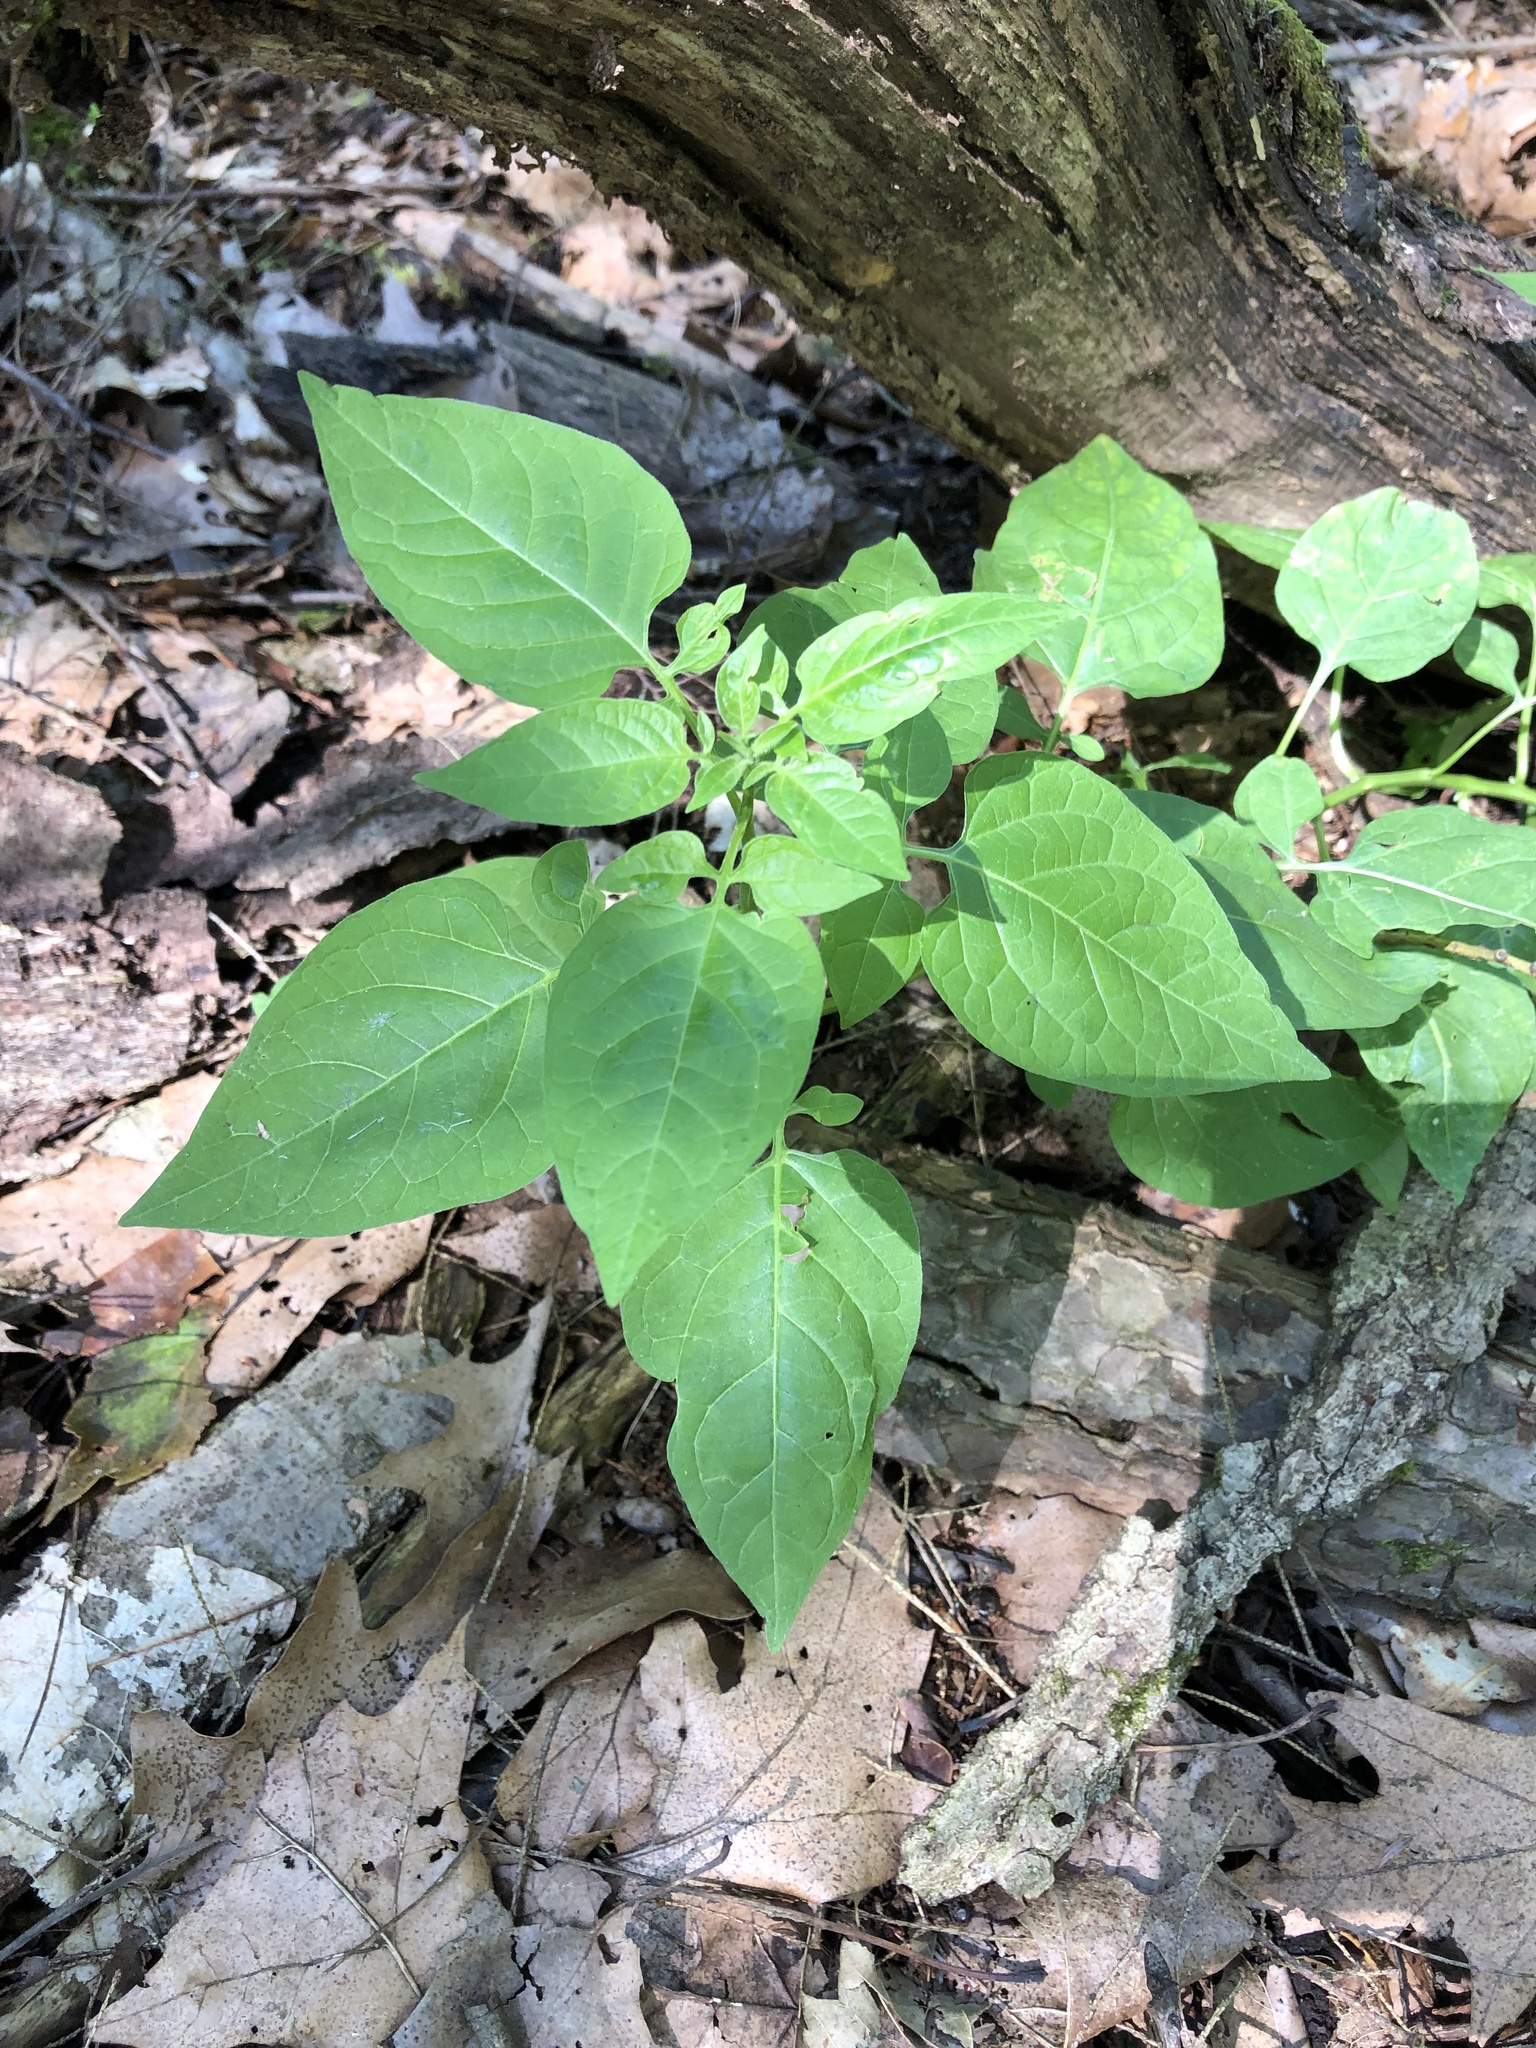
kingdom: Plantae
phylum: Tracheophyta
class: Magnoliopsida
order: Solanales
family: Solanaceae
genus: Solanum
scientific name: Solanum dulcamara
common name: Climbing nightshade
